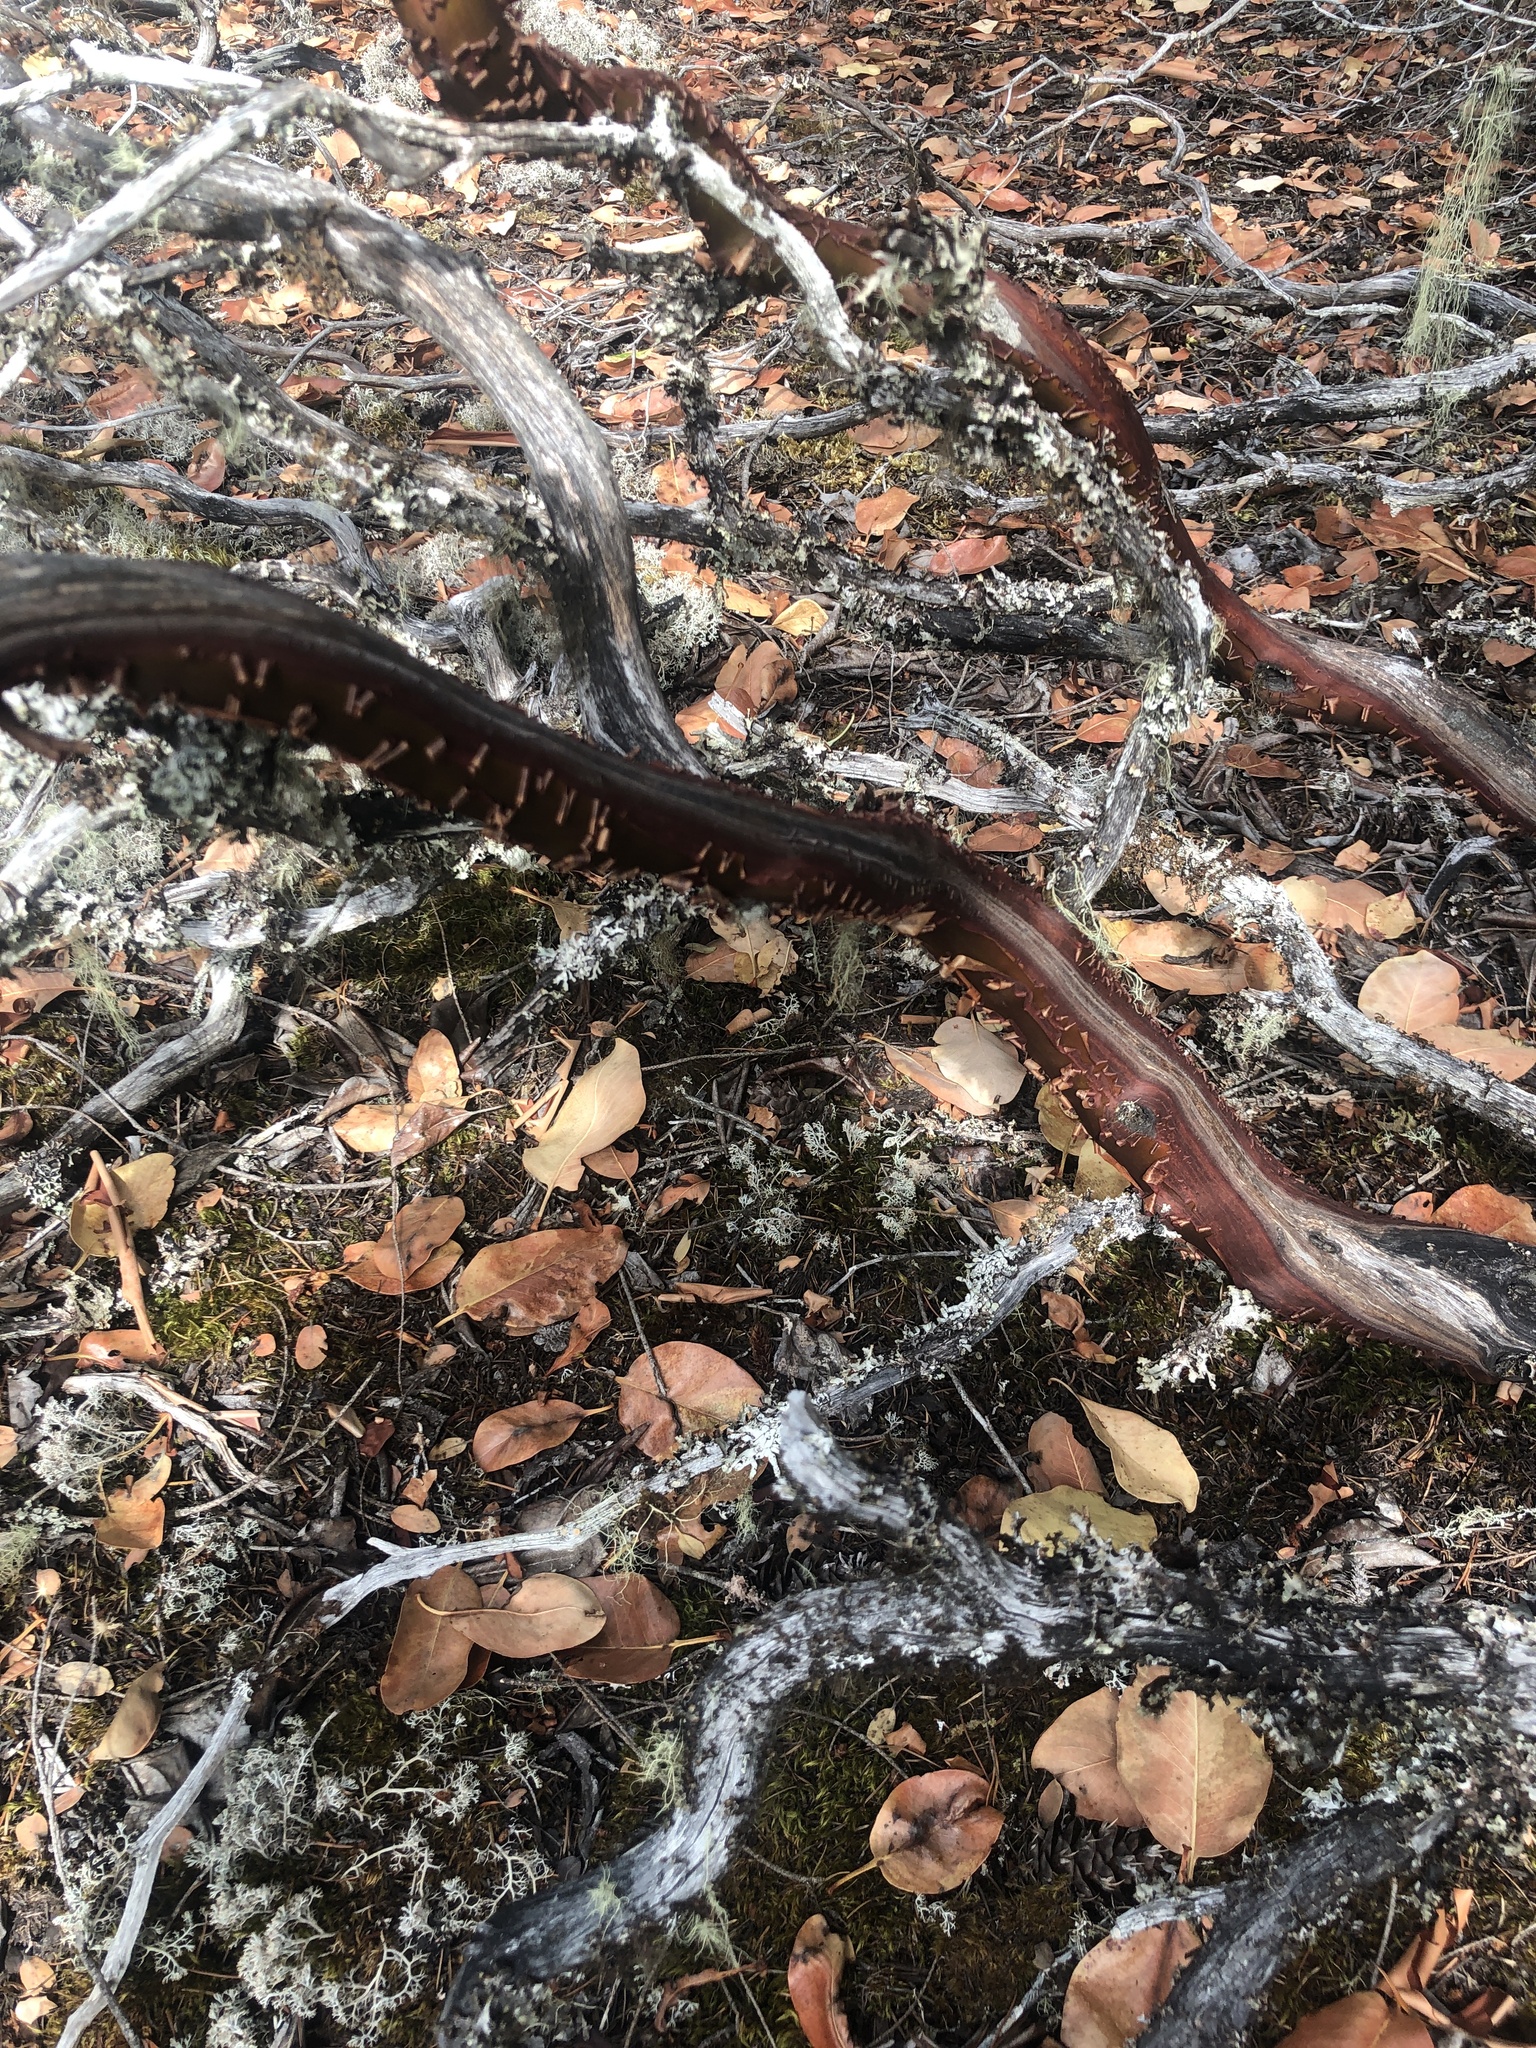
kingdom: Plantae
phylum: Tracheophyta
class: Magnoliopsida
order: Ericales
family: Ericaceae
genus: Arctostaphylos
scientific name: Arctostaphylos columbiana
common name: Bristly bearberry
